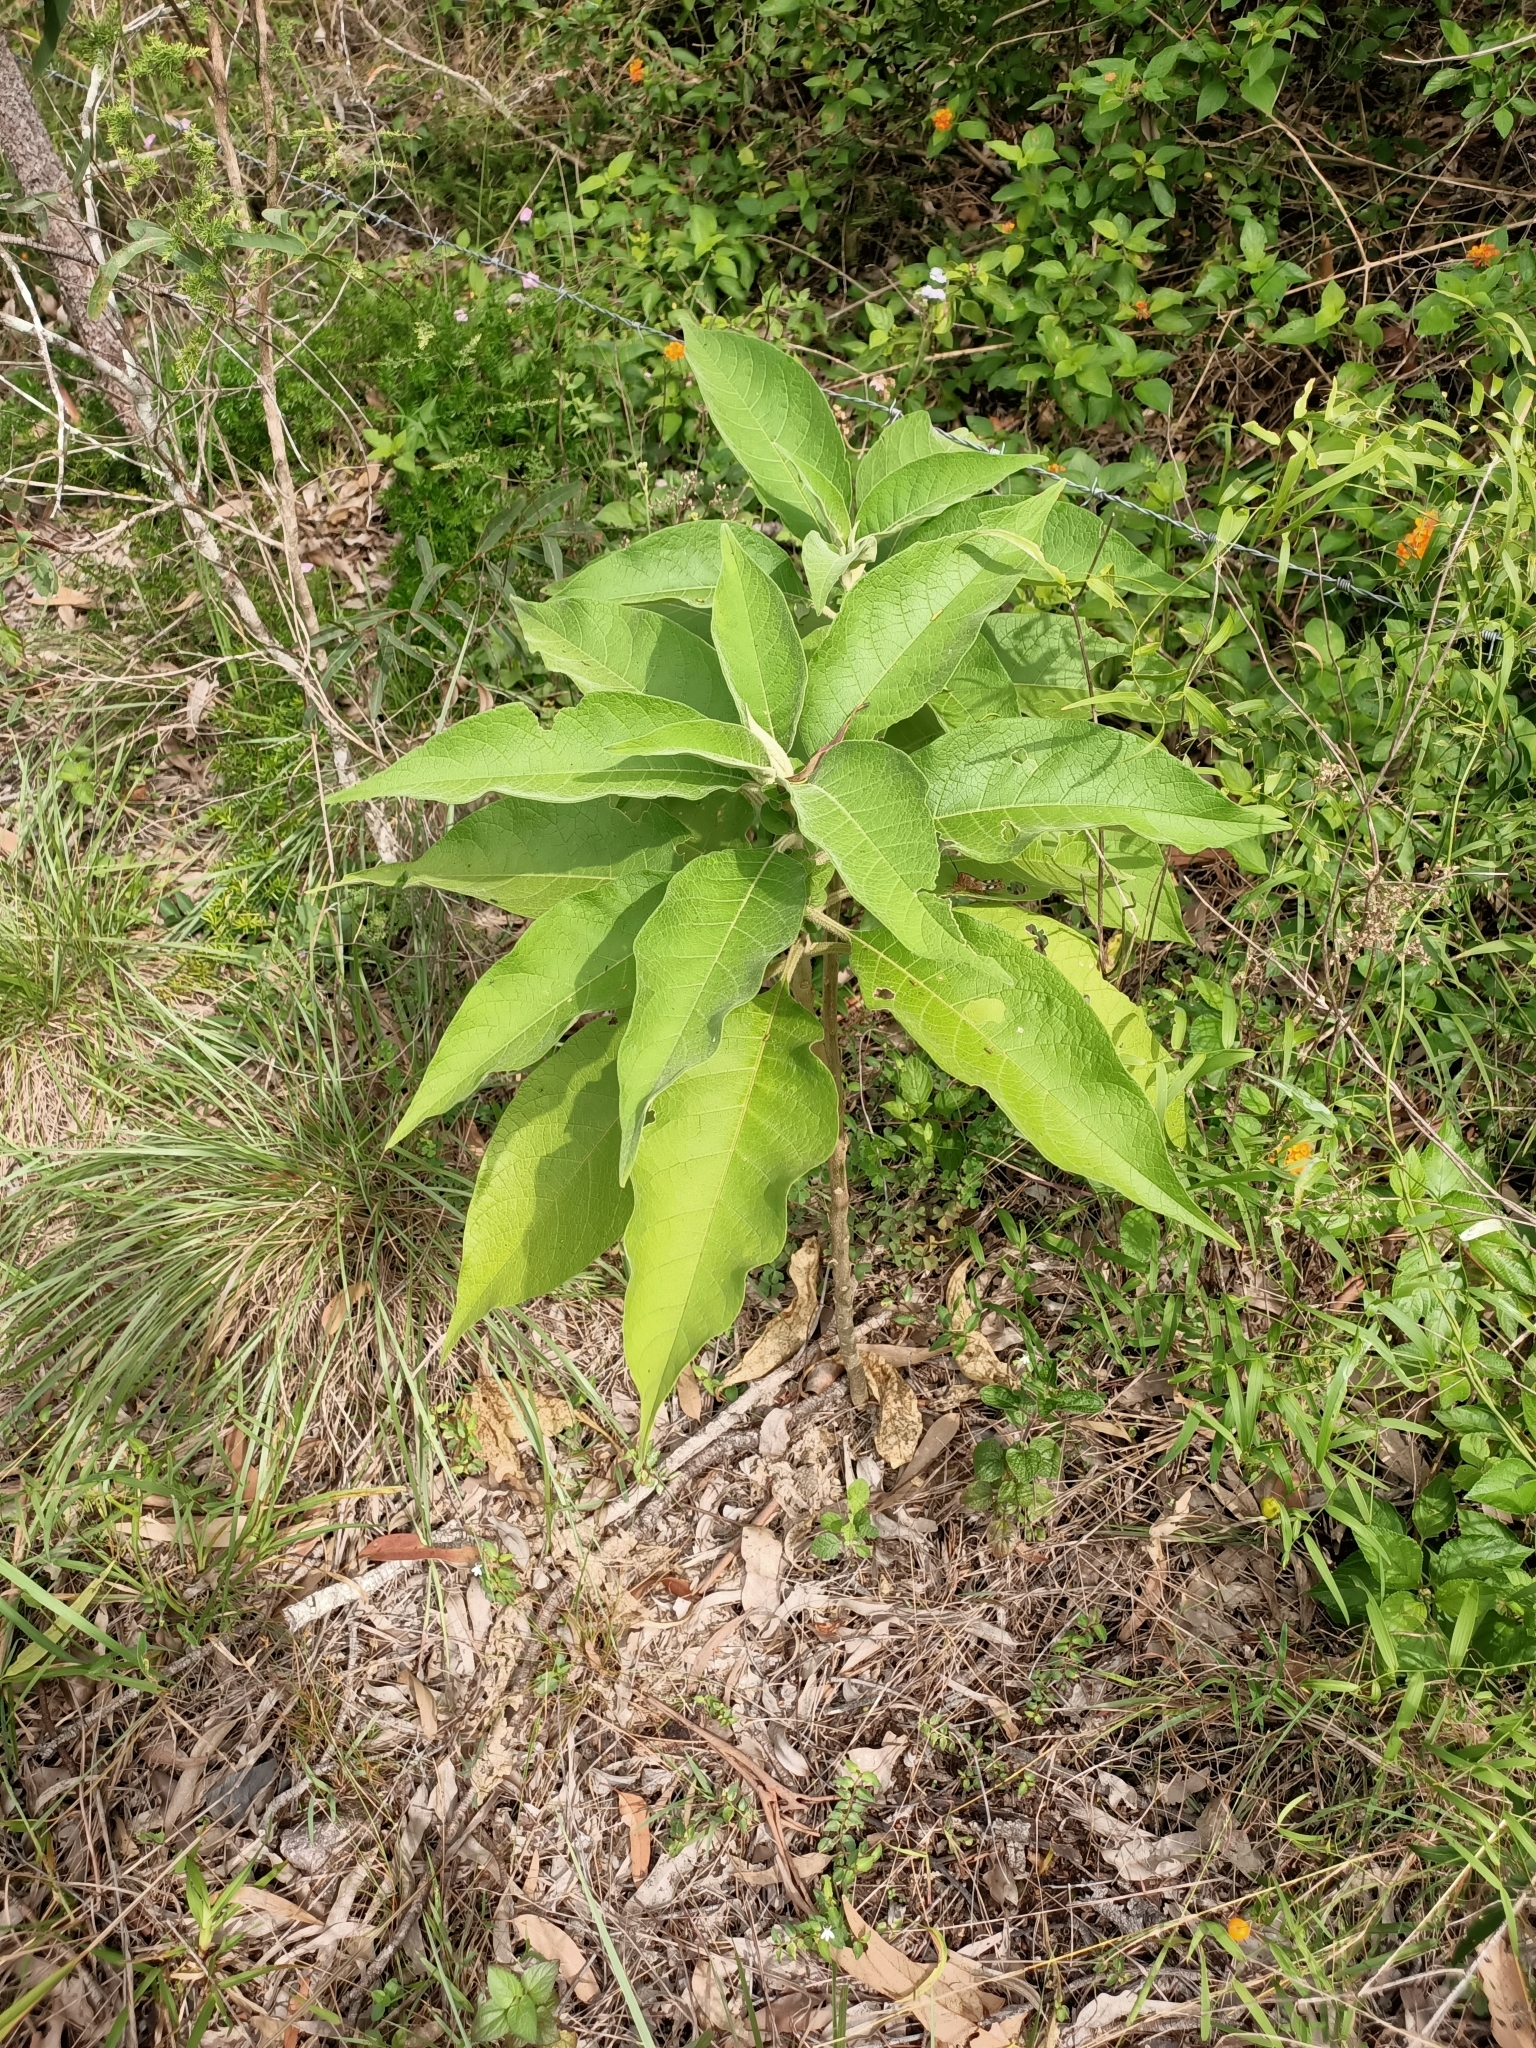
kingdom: Plantae
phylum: Tracheophyta
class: Magnoliopsida
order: Solanales
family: Solanaceae
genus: Solanum
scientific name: Solanum mauritianum
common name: Earleaf nightshade
